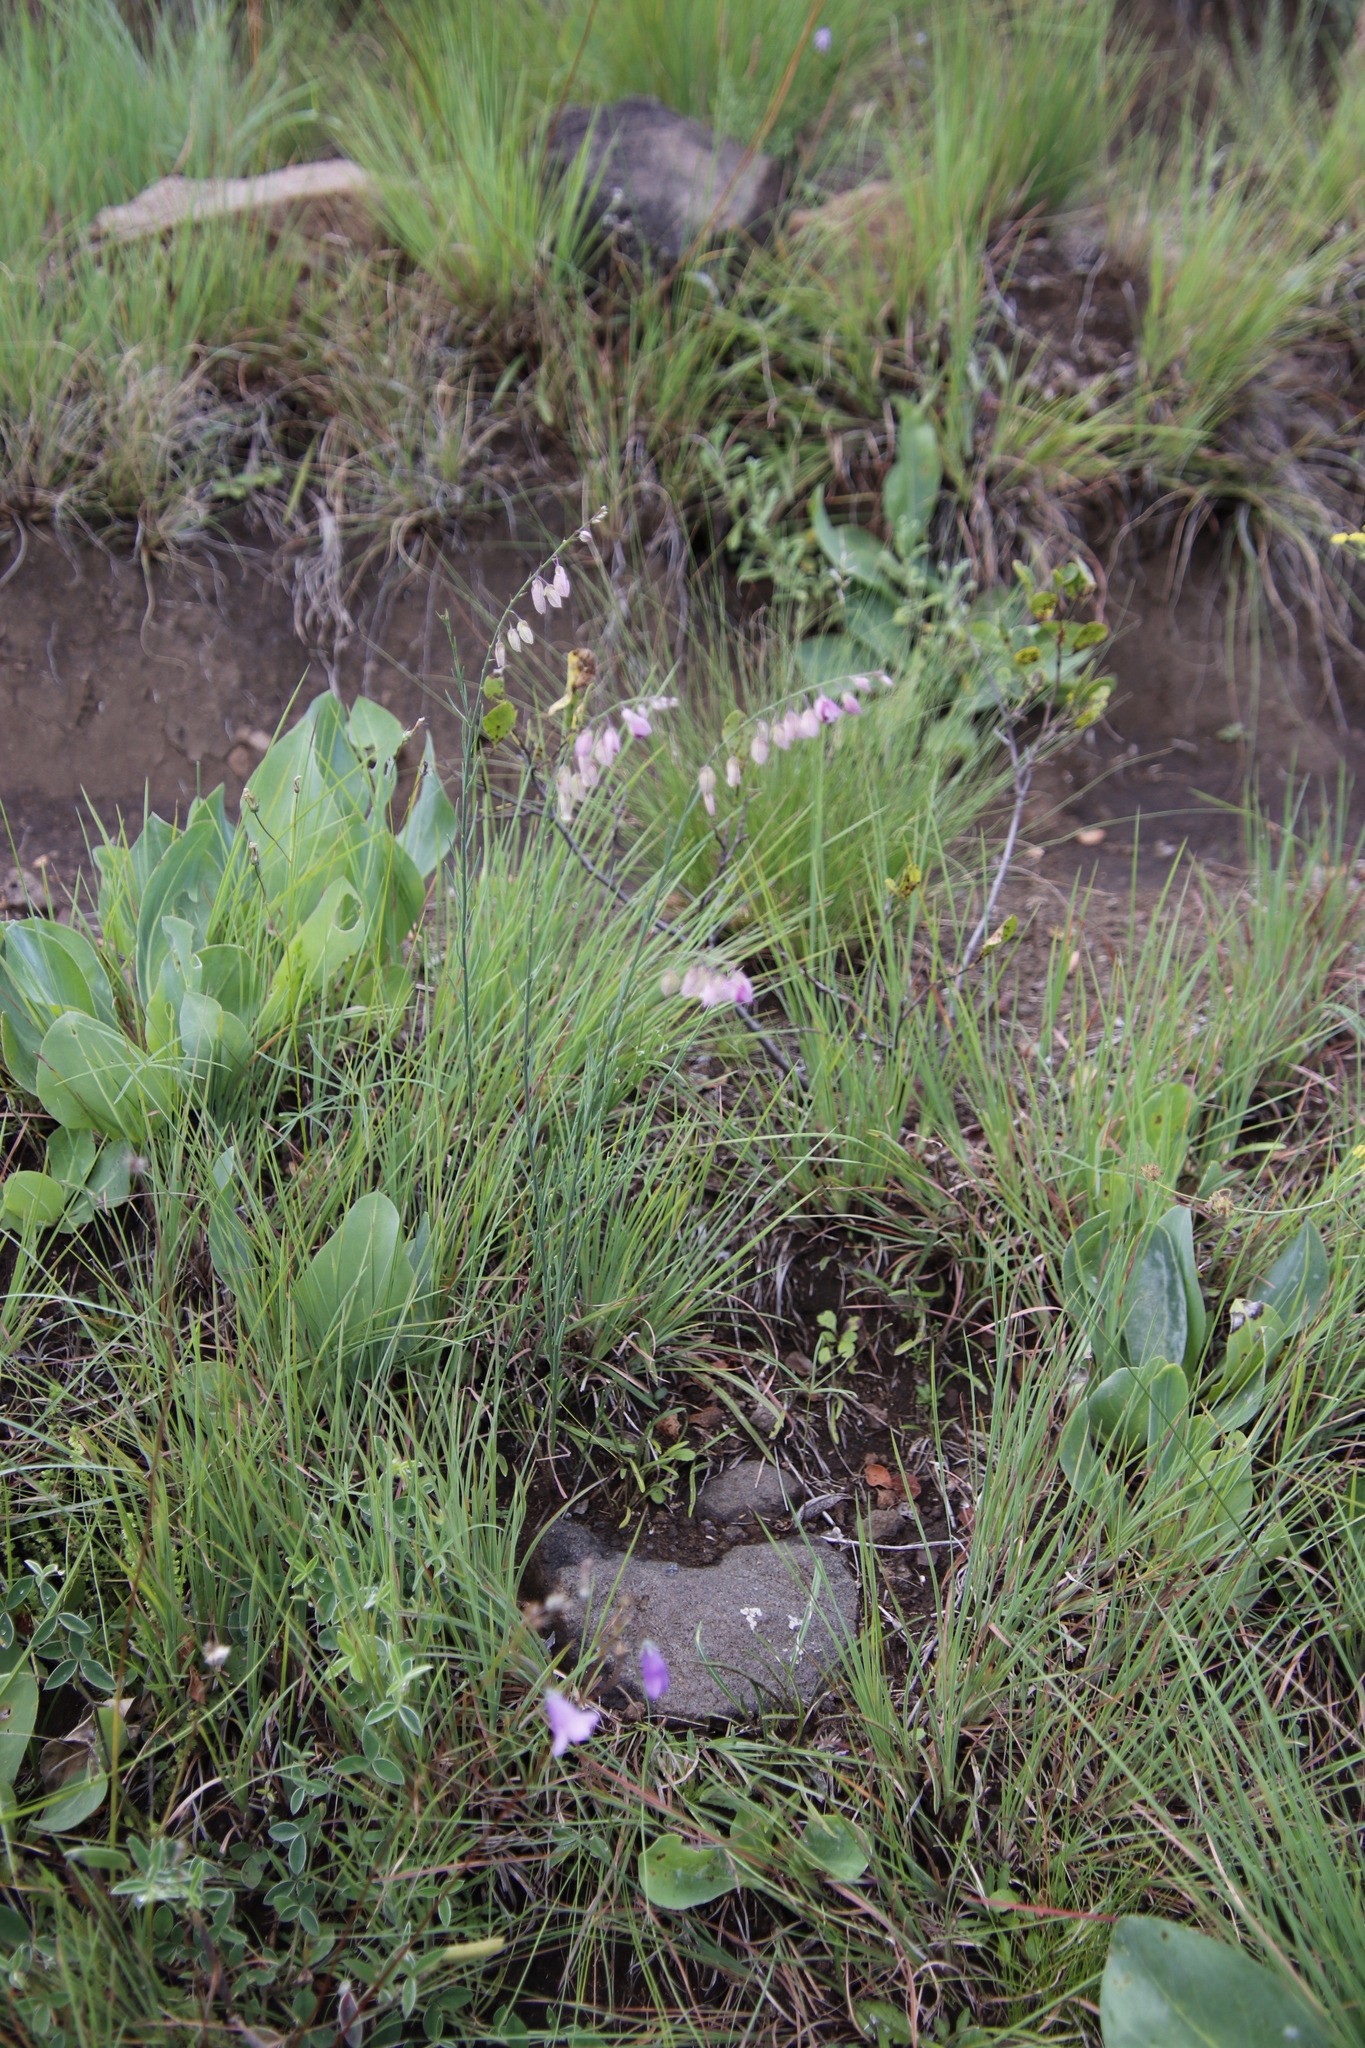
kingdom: Plantae
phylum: Tracheophyta
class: Magnoliopsida
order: Fabales
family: Polygalaceae
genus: Polygala
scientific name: Polygala hottentotta
